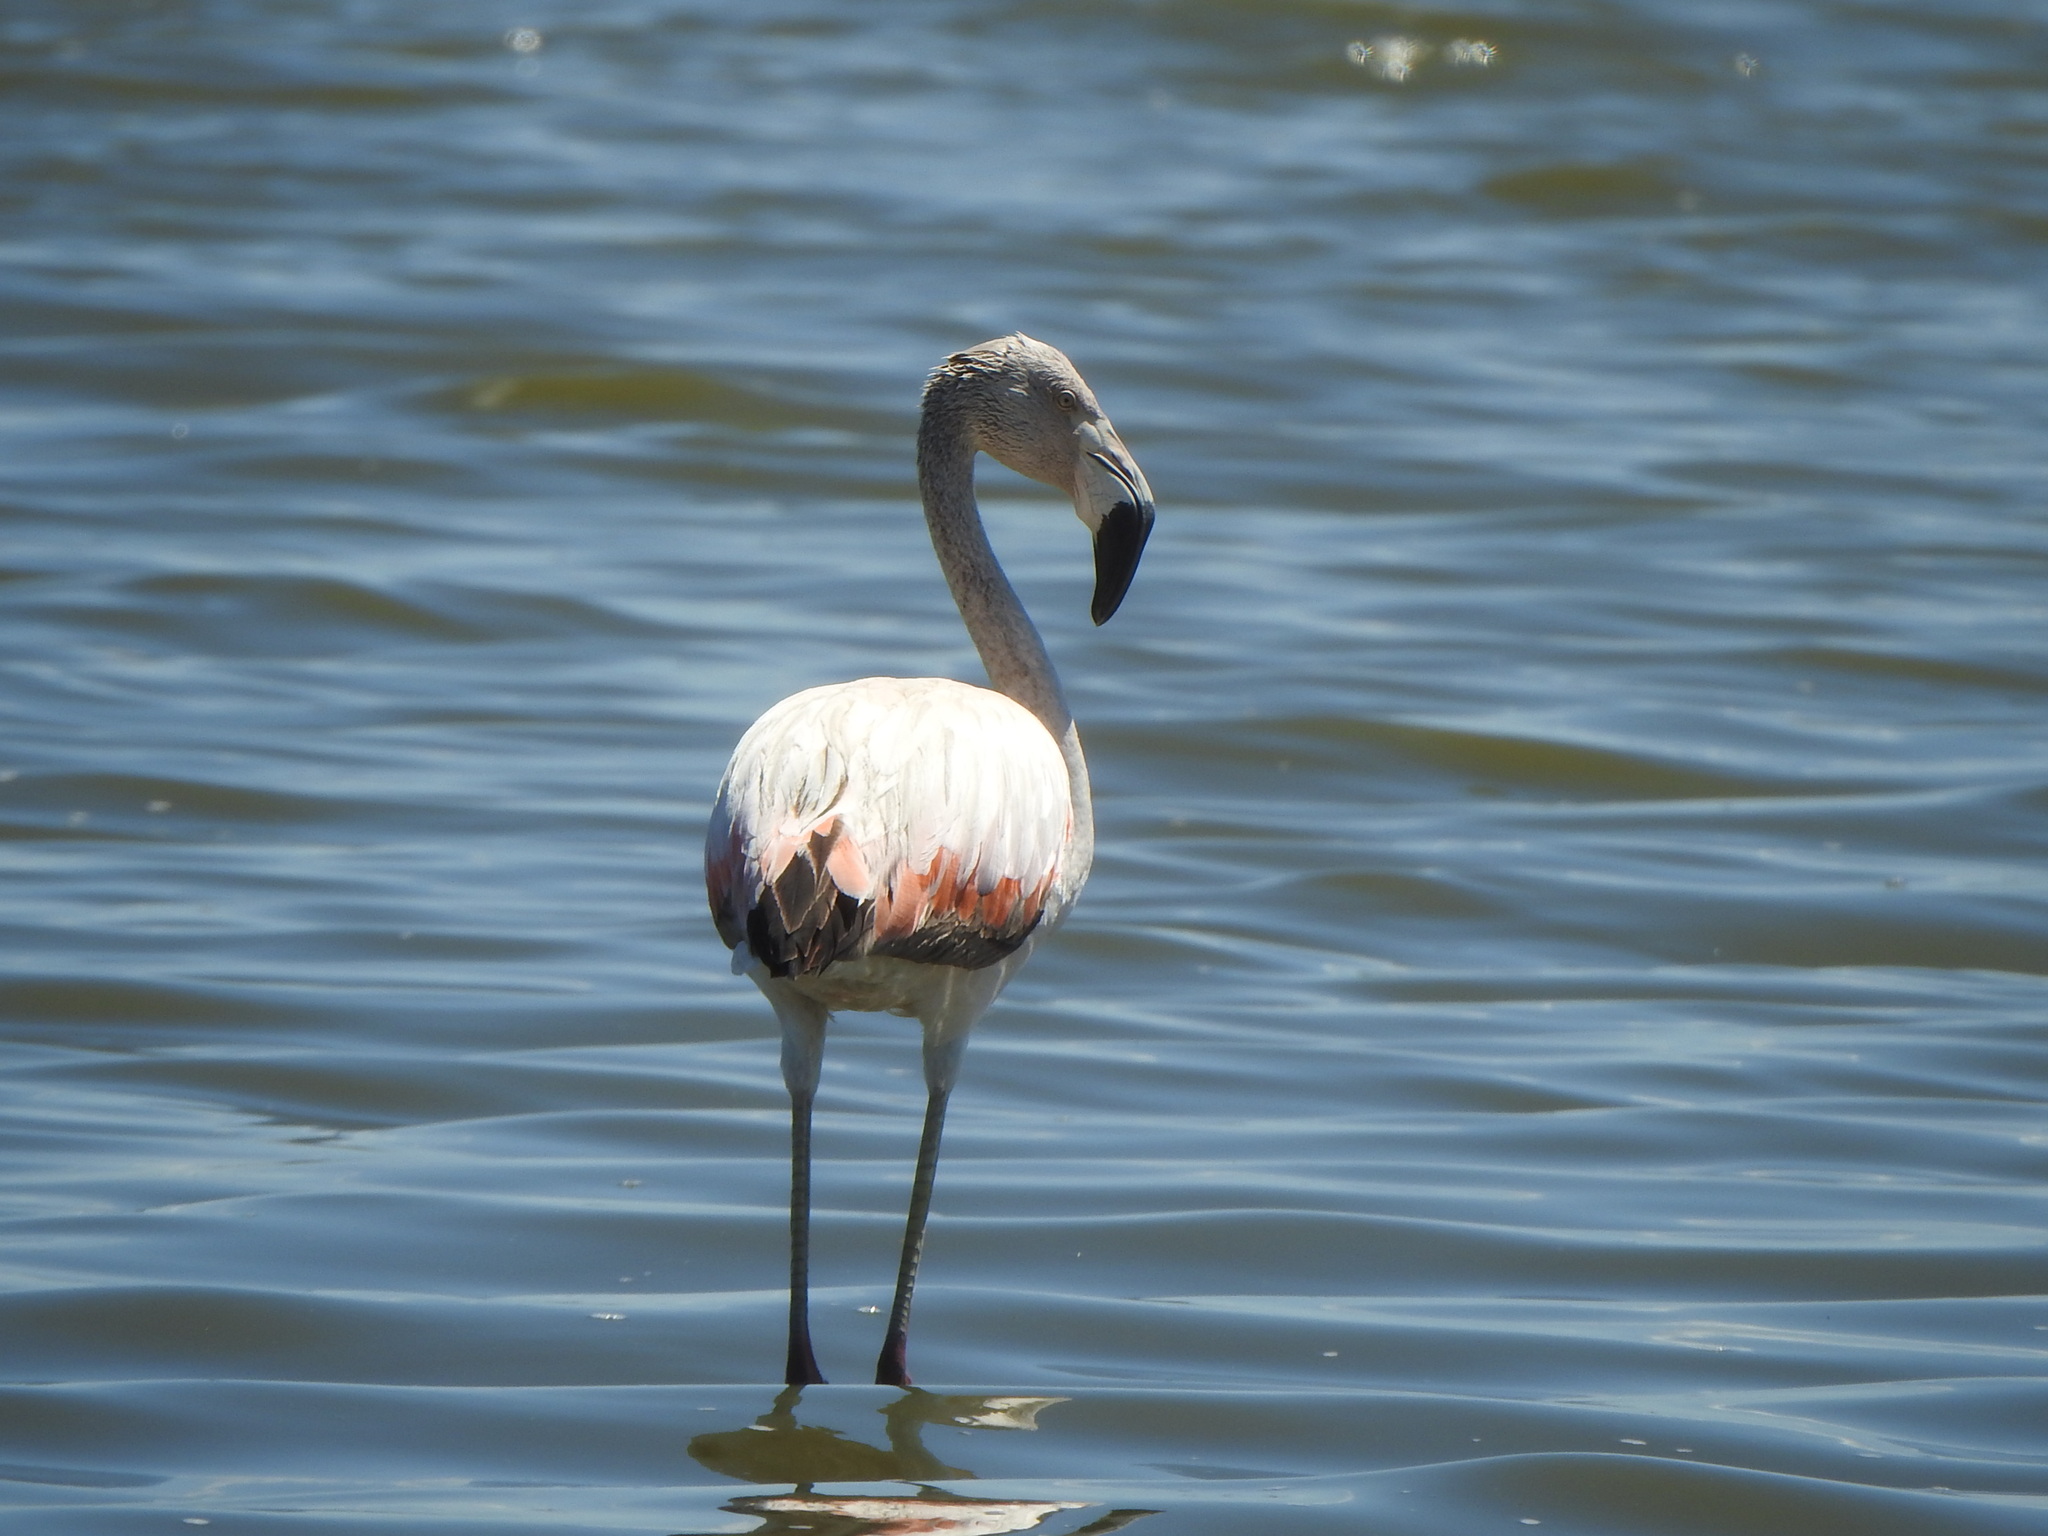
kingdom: Animalia
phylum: Chordata
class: Aves
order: Phoenicopteriformes
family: Phoenicopteridae
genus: Phoenicopterus
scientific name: Phoenicopterus chilensis
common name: Chilean flamingo
